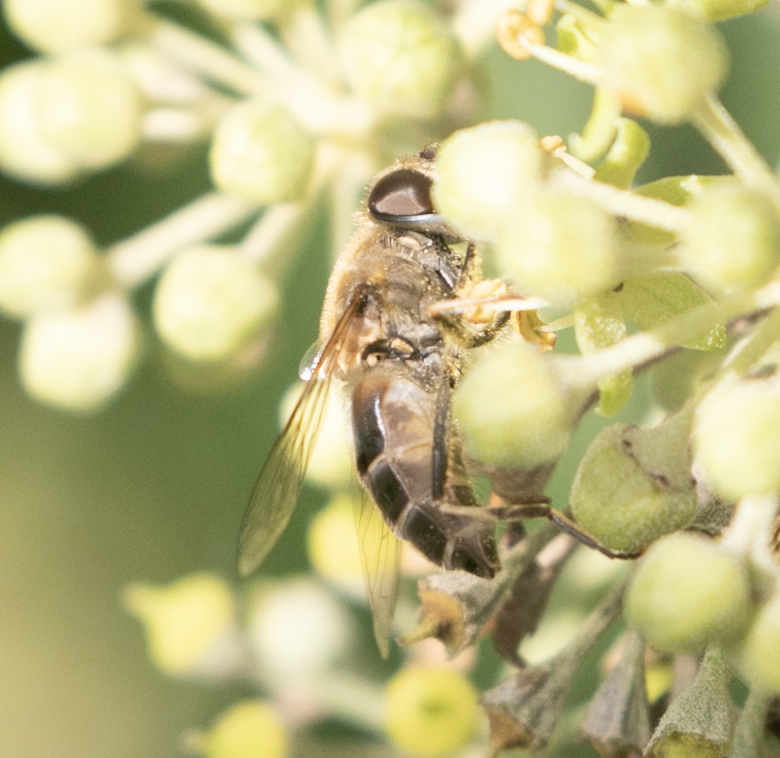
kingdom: Animalia
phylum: Arthropoda
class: Insecta
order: Diptera
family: Syrphidae
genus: Eristalis
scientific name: Eristalis pertinax
